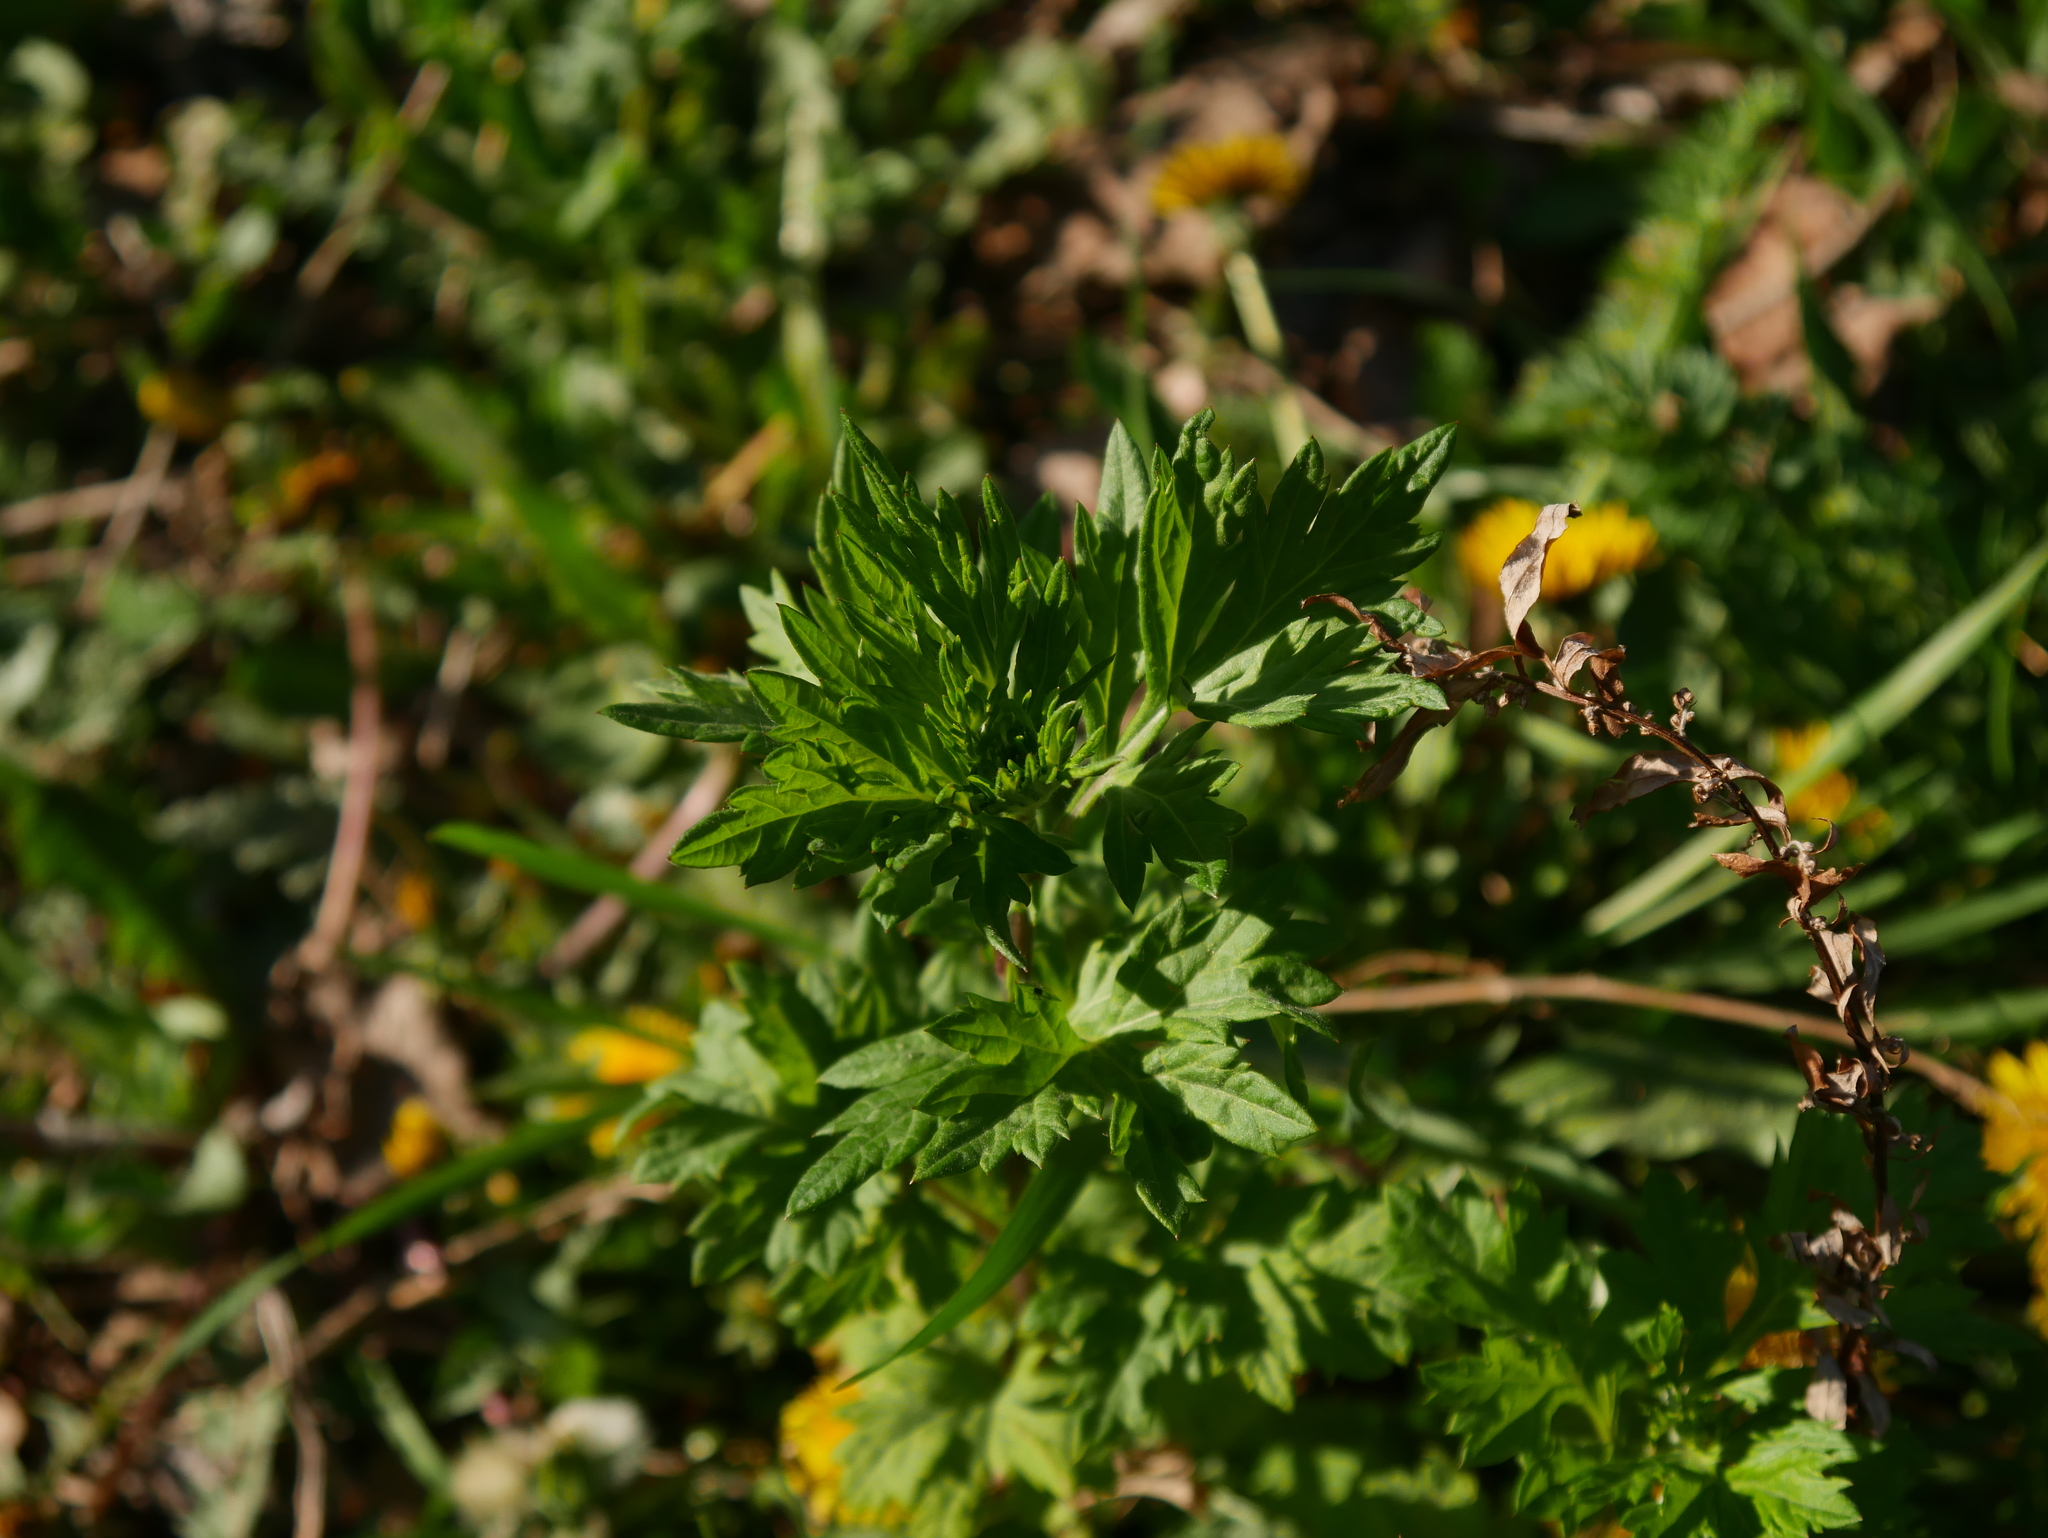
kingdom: Plantae
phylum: Tracheophyta
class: Magnoliopsida
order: Asterales
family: Asteraceae
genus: Artemisia
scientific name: Artemisia vulgaris
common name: Mugwort
